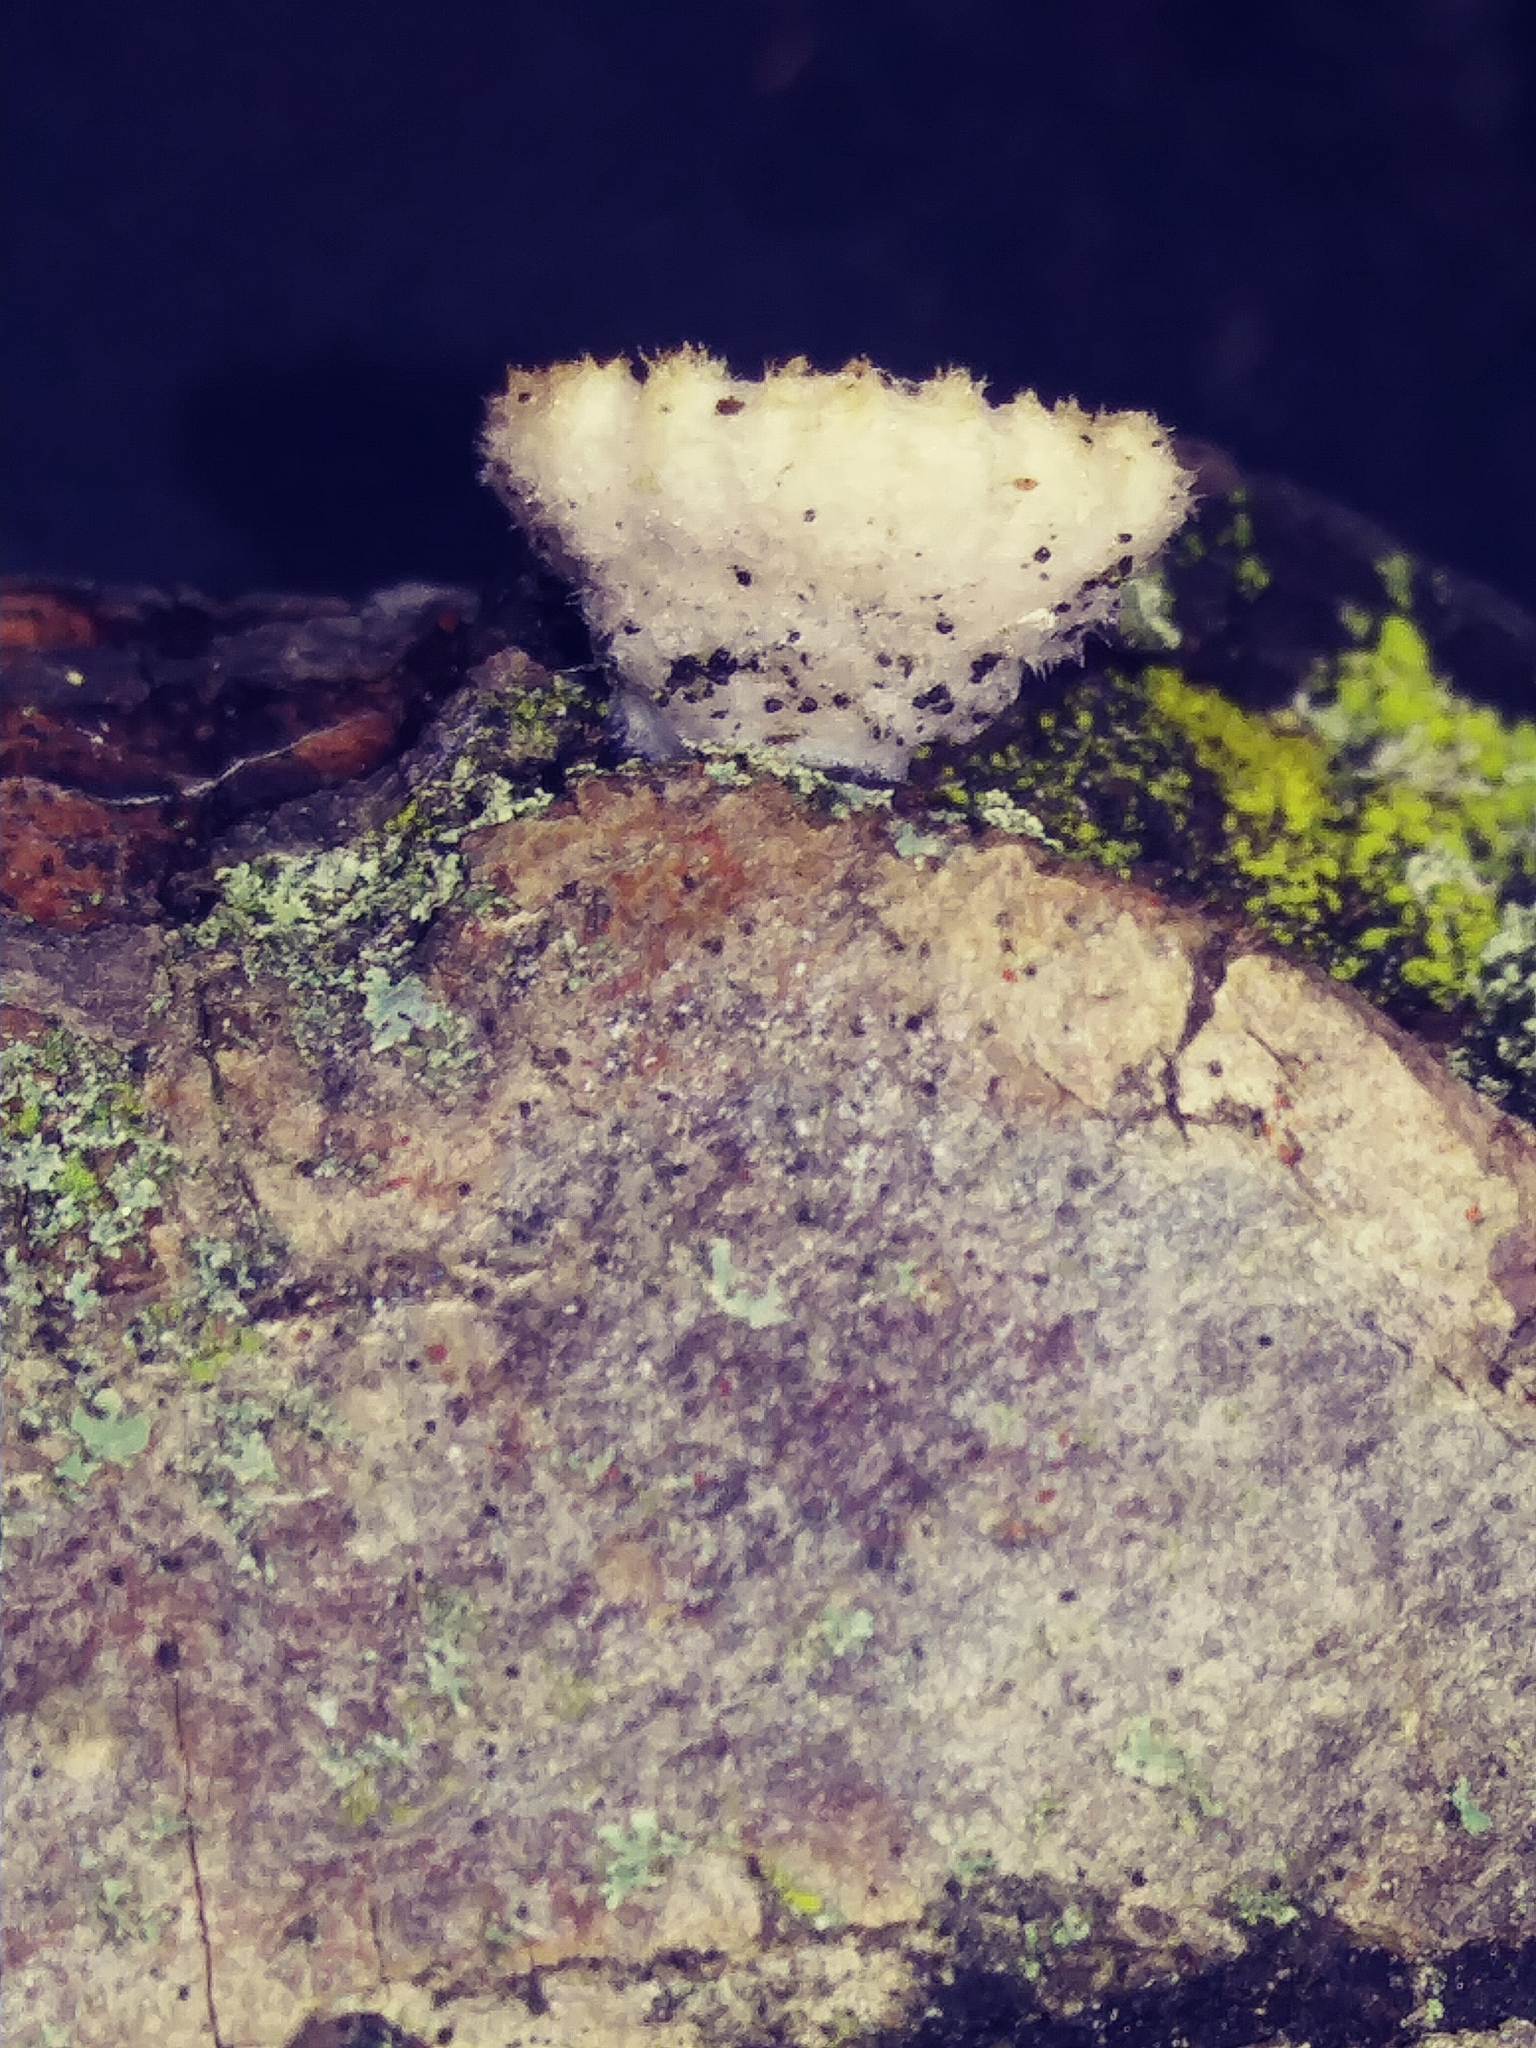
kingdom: Fungi
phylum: Basidiomycota
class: Agaricomycetes
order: Agaricales
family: Schizophyllaceae
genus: Schizophyllum
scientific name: Schizophyllum commune
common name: Common porecrust
